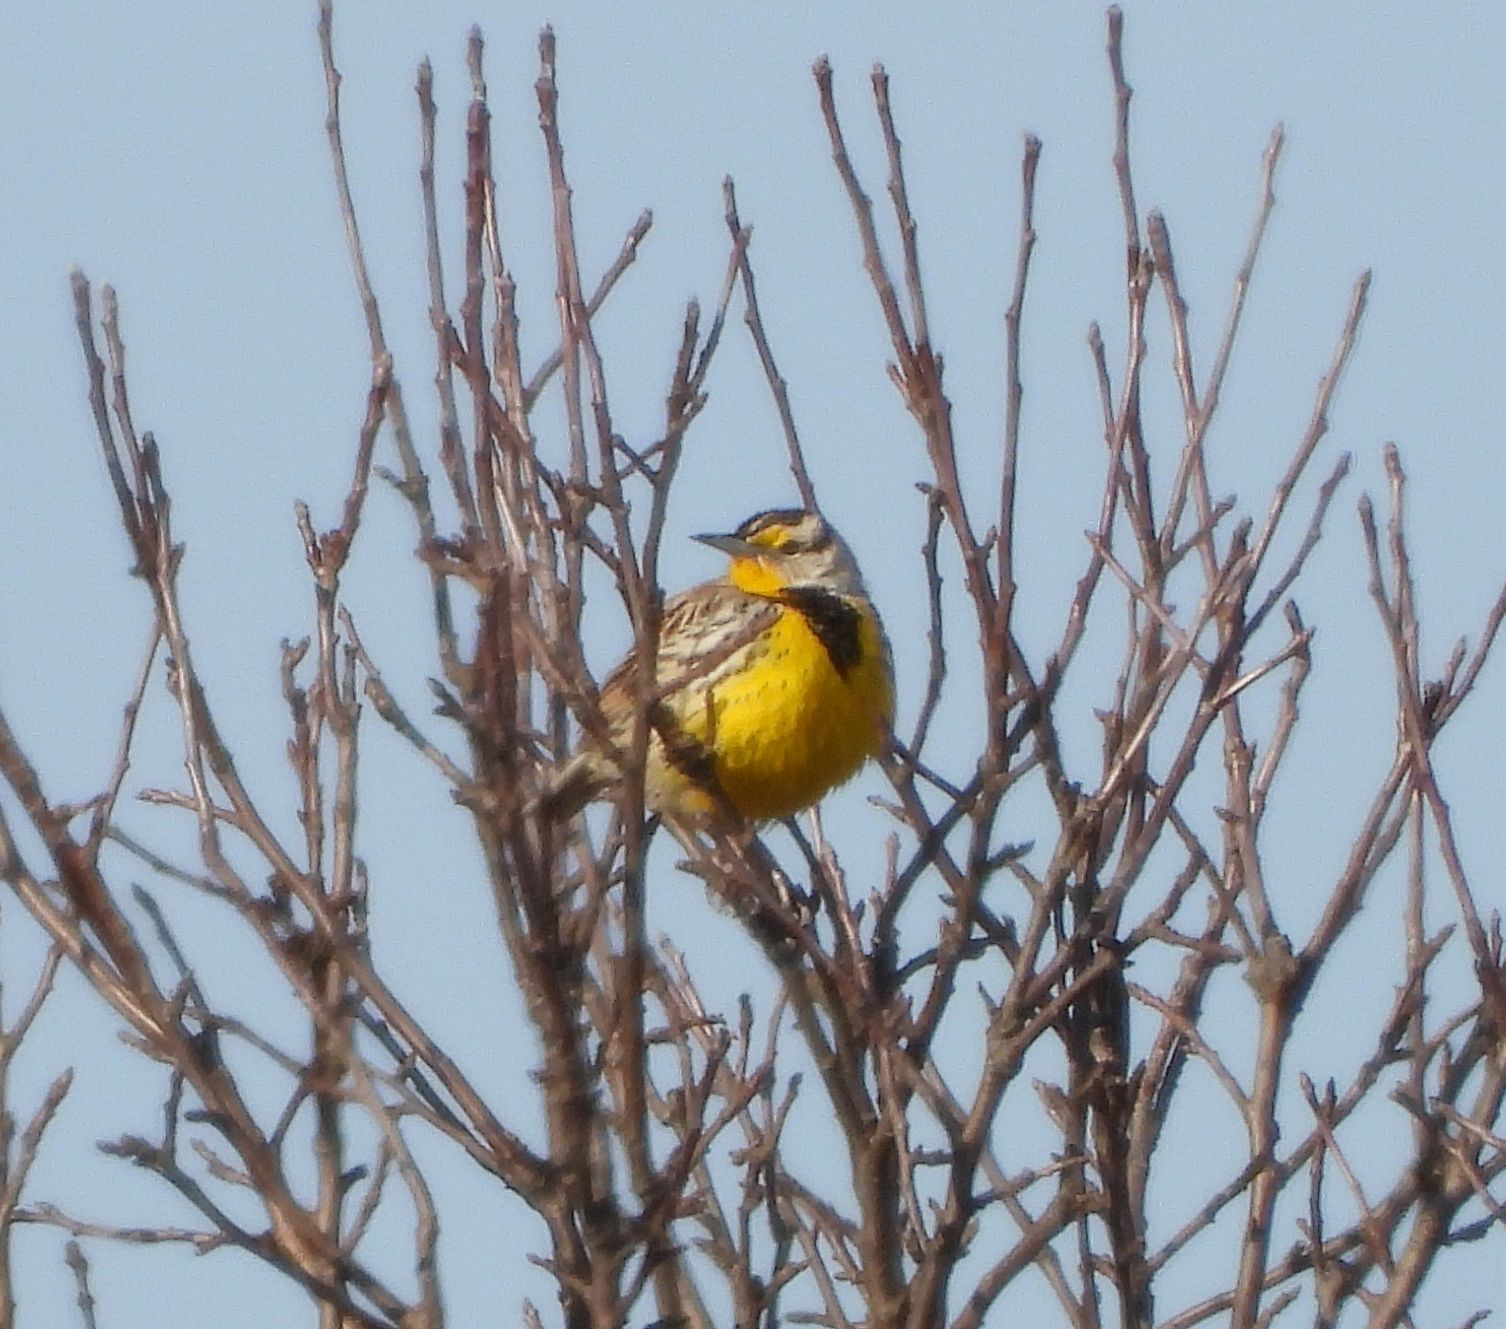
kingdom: Animalia
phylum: Chordata
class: Aves
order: Passeriformes
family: Icteridae
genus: Sturnella
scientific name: Sturnella magna
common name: Eastern meadowlark
